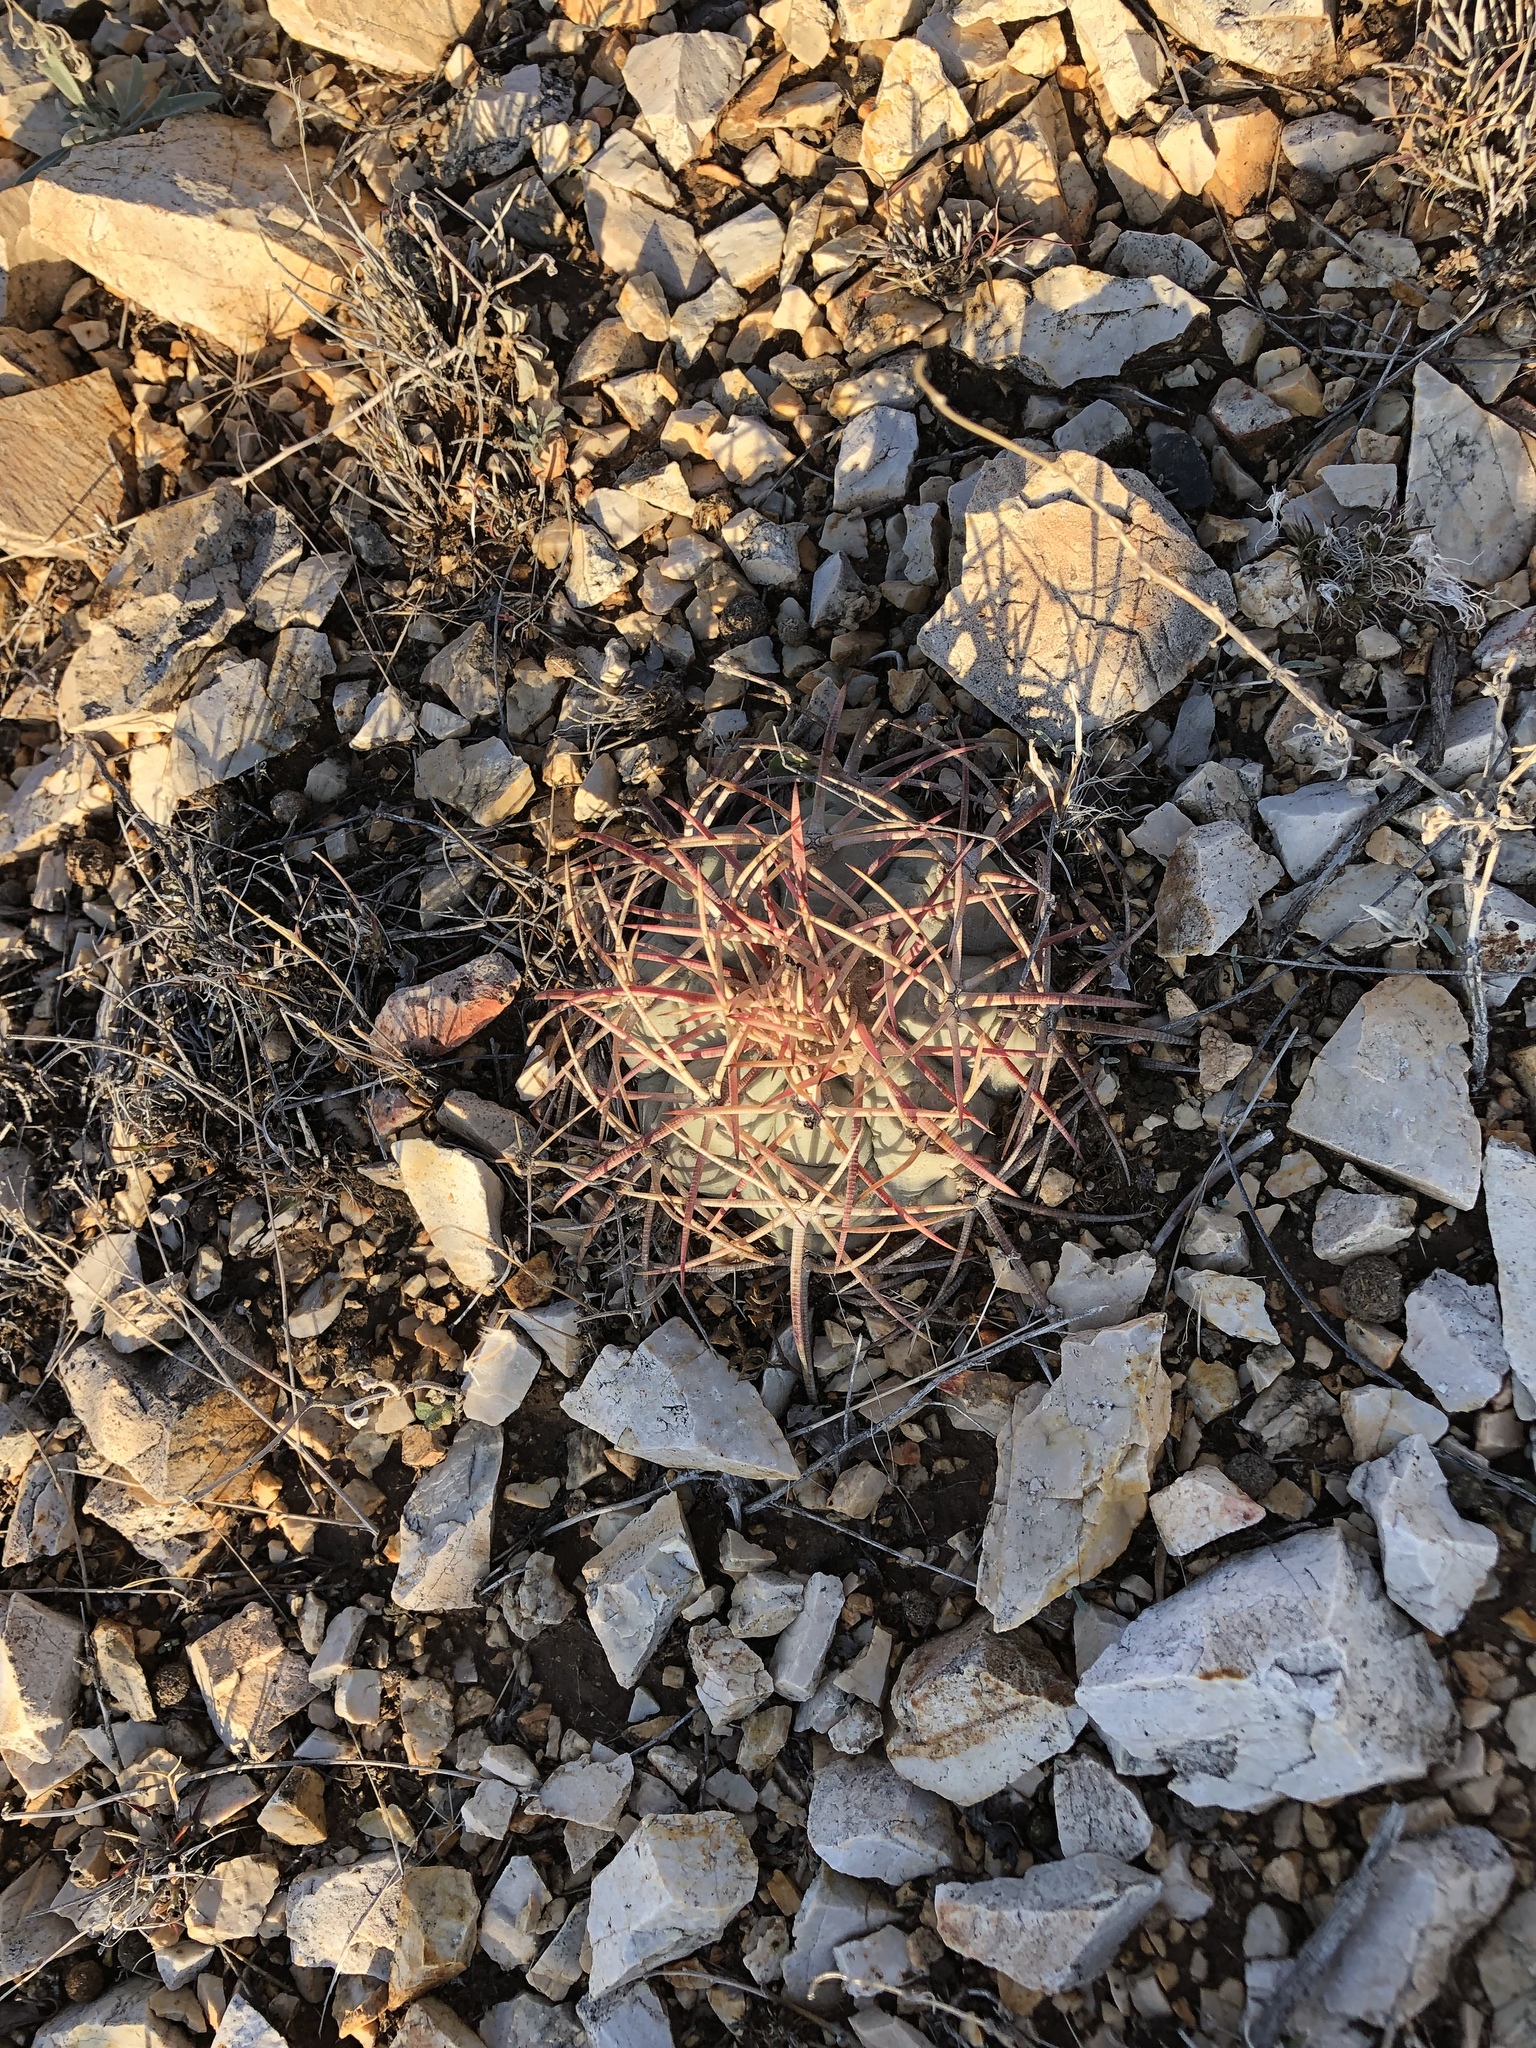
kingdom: Plantae
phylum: Tracheophyta
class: Magnoliopsida
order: Caryophyllales
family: Cactaceae
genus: Echinocactus
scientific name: Echinocactus horizonthalonius
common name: Devilshead
